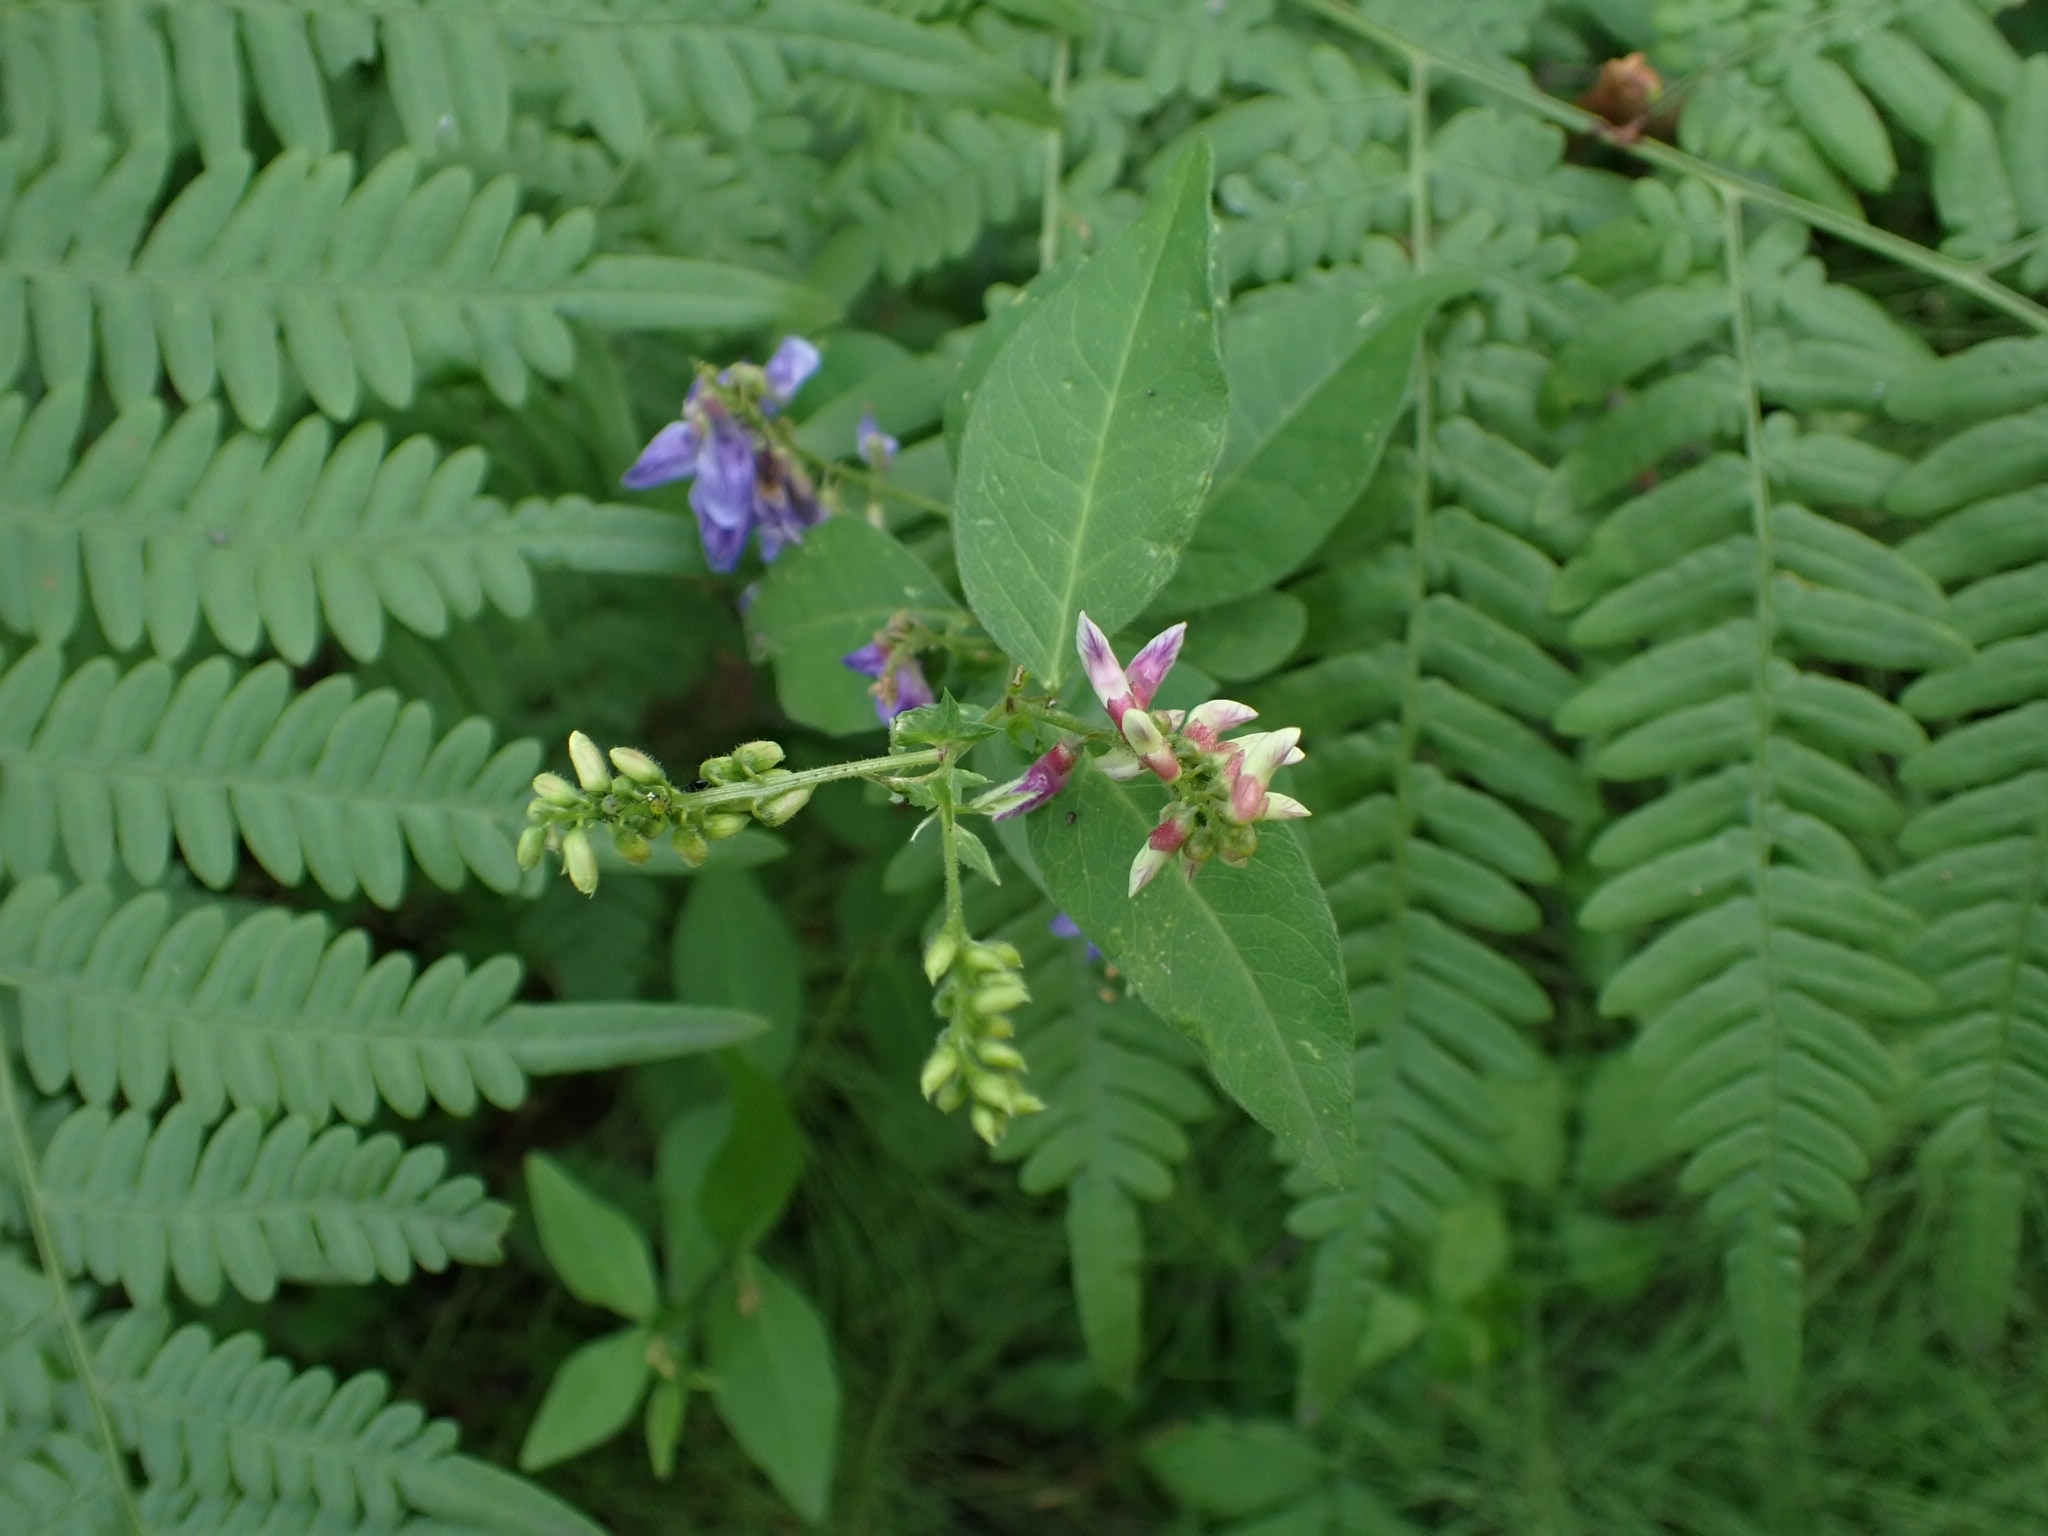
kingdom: Plantae
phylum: Tracheophyta
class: Magnoliopsida
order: Fabales
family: Fabaceae
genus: Vicia
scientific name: Vicia unijuga
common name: Two-leaf vetch
